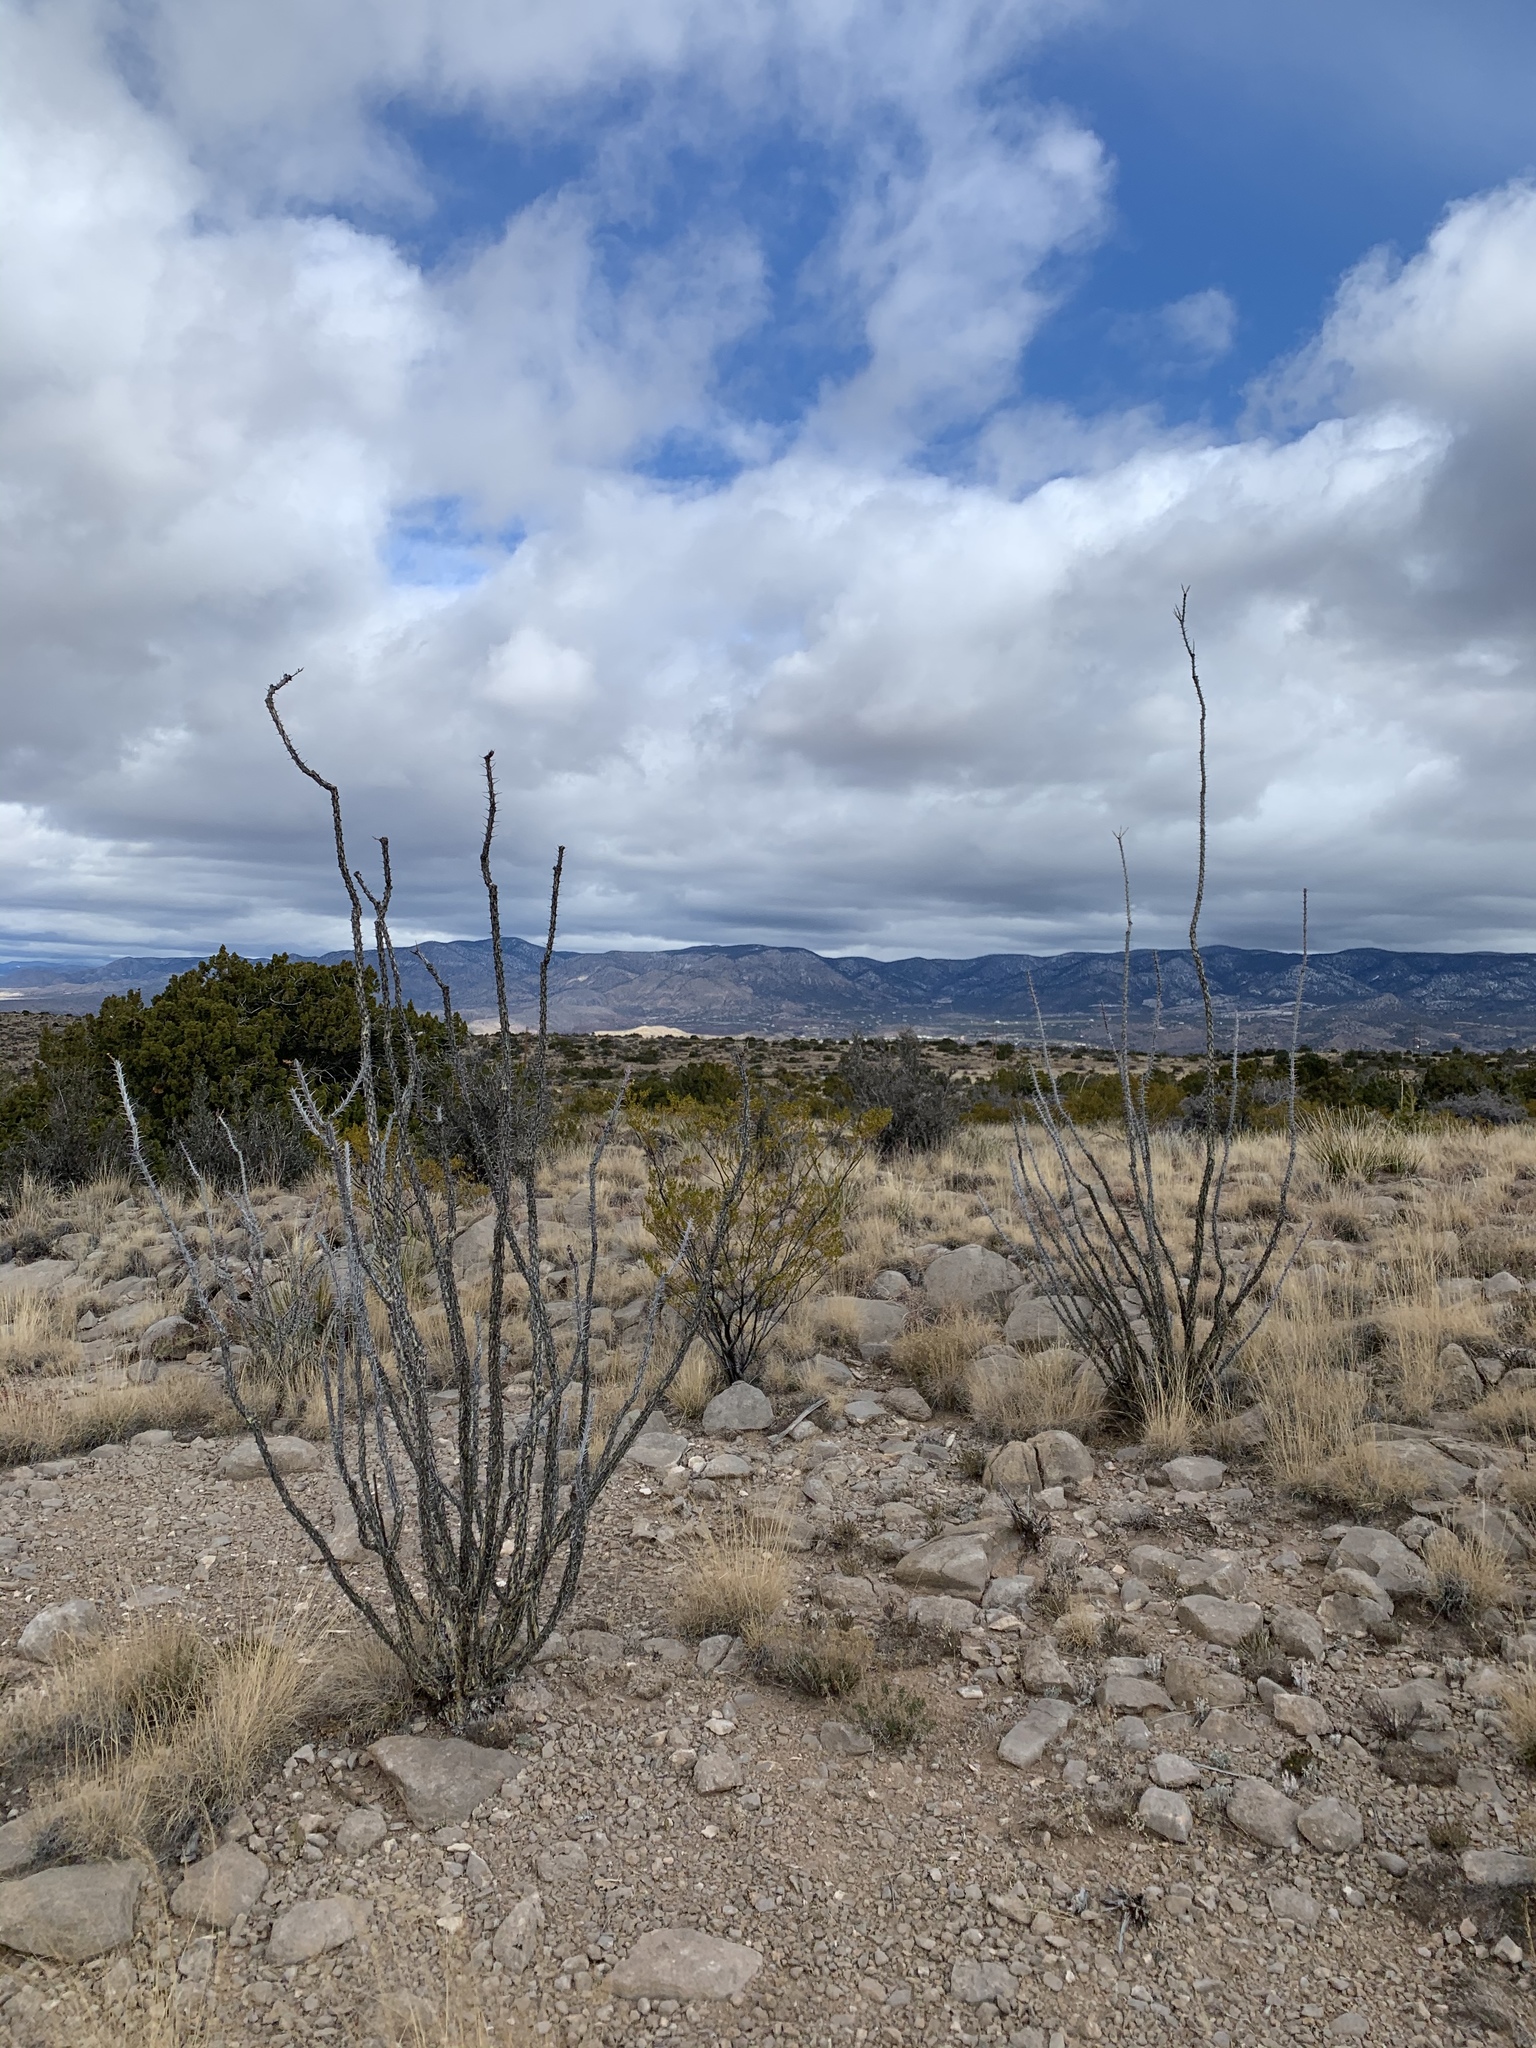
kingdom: Plantae
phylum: Tracheophyta
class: Magnoliopsida
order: Ericales
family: Fouquieriaceae
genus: Fouquieria
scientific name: Fouquieria splendens
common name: Vine-cactus
